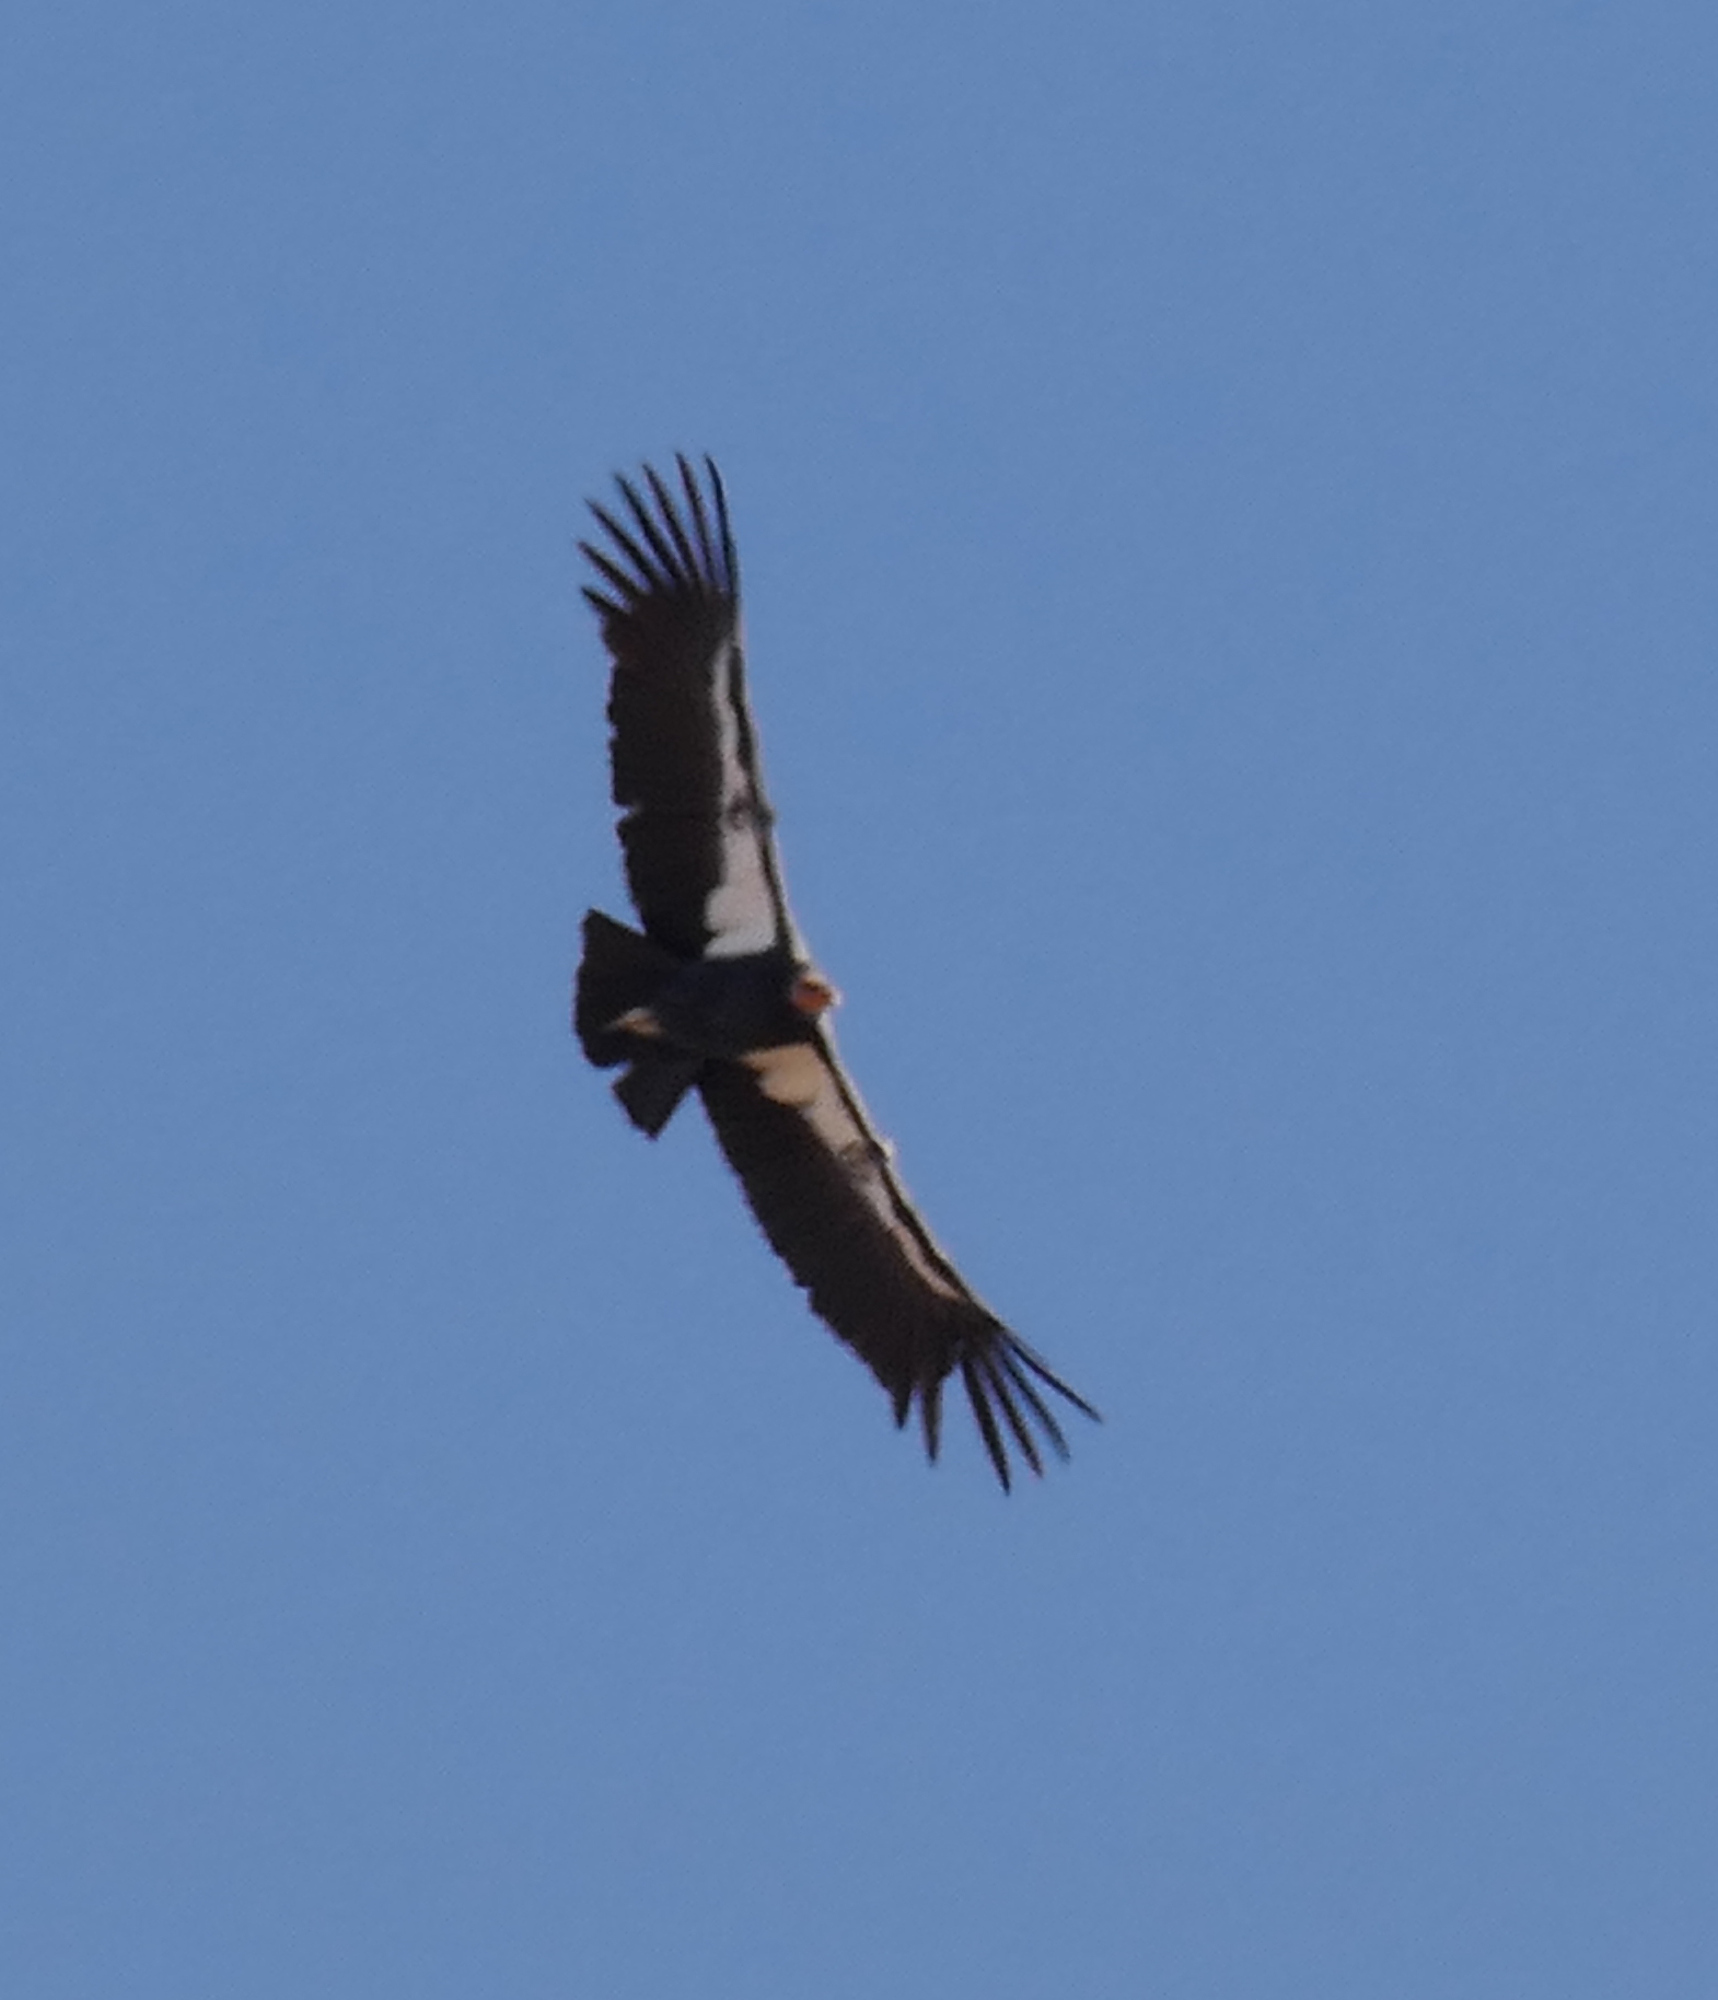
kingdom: Animalia
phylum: Chordata
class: Aves
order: Accipitriformes
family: Cathartidae
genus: Gymnogyps
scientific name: Gymnogyps californianus
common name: California condor
